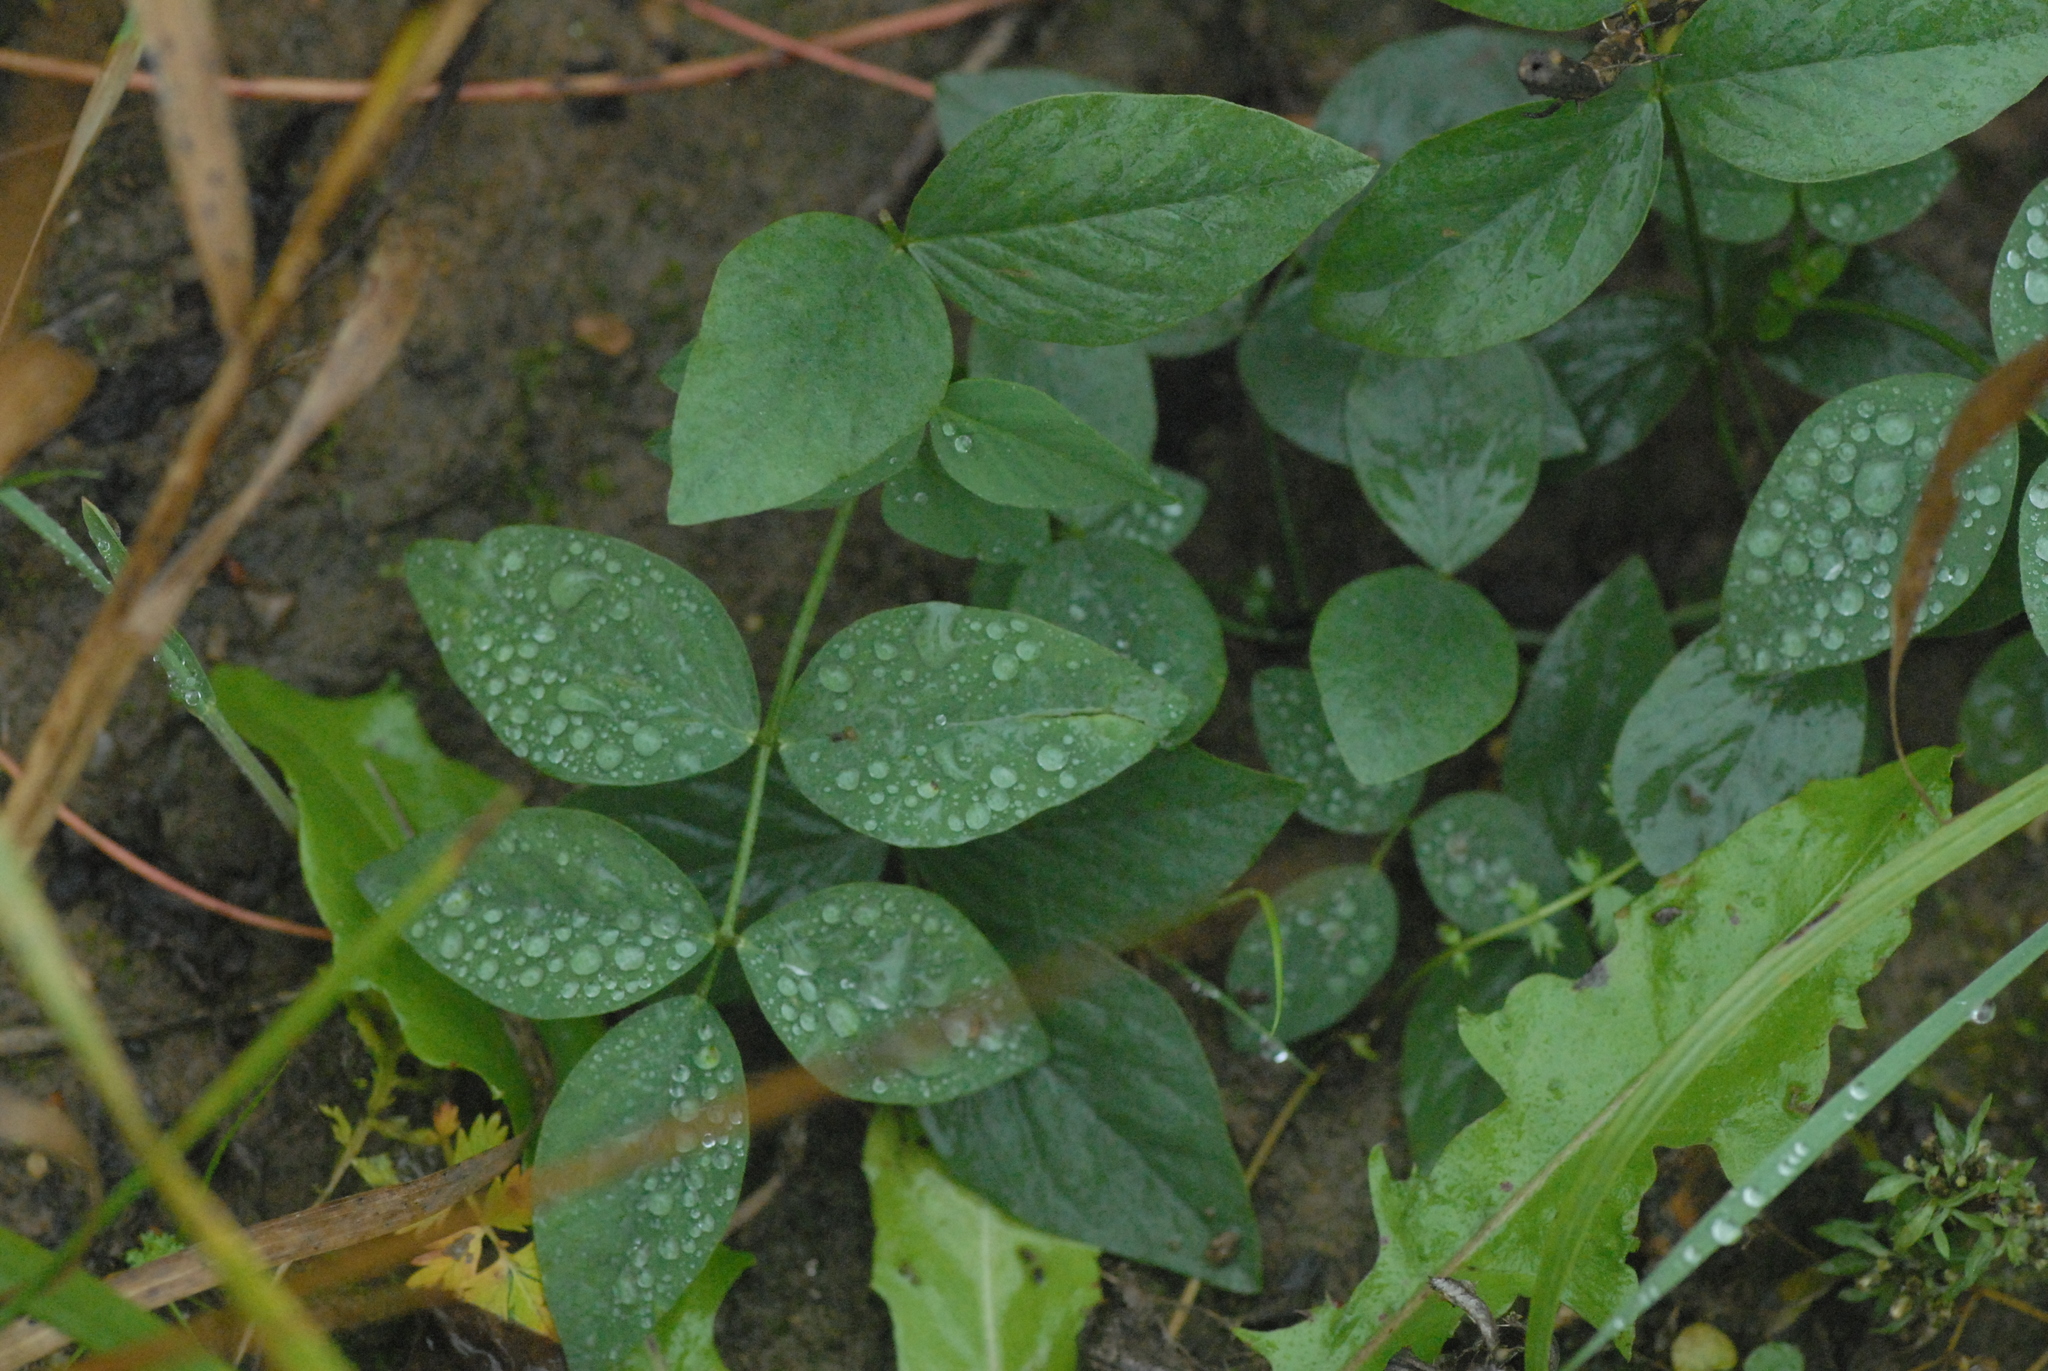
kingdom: Plantae
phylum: Tracheophyta
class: Magnoliopsida
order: Fabales
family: Fabaceae
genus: Galega
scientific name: Galega orientalis
